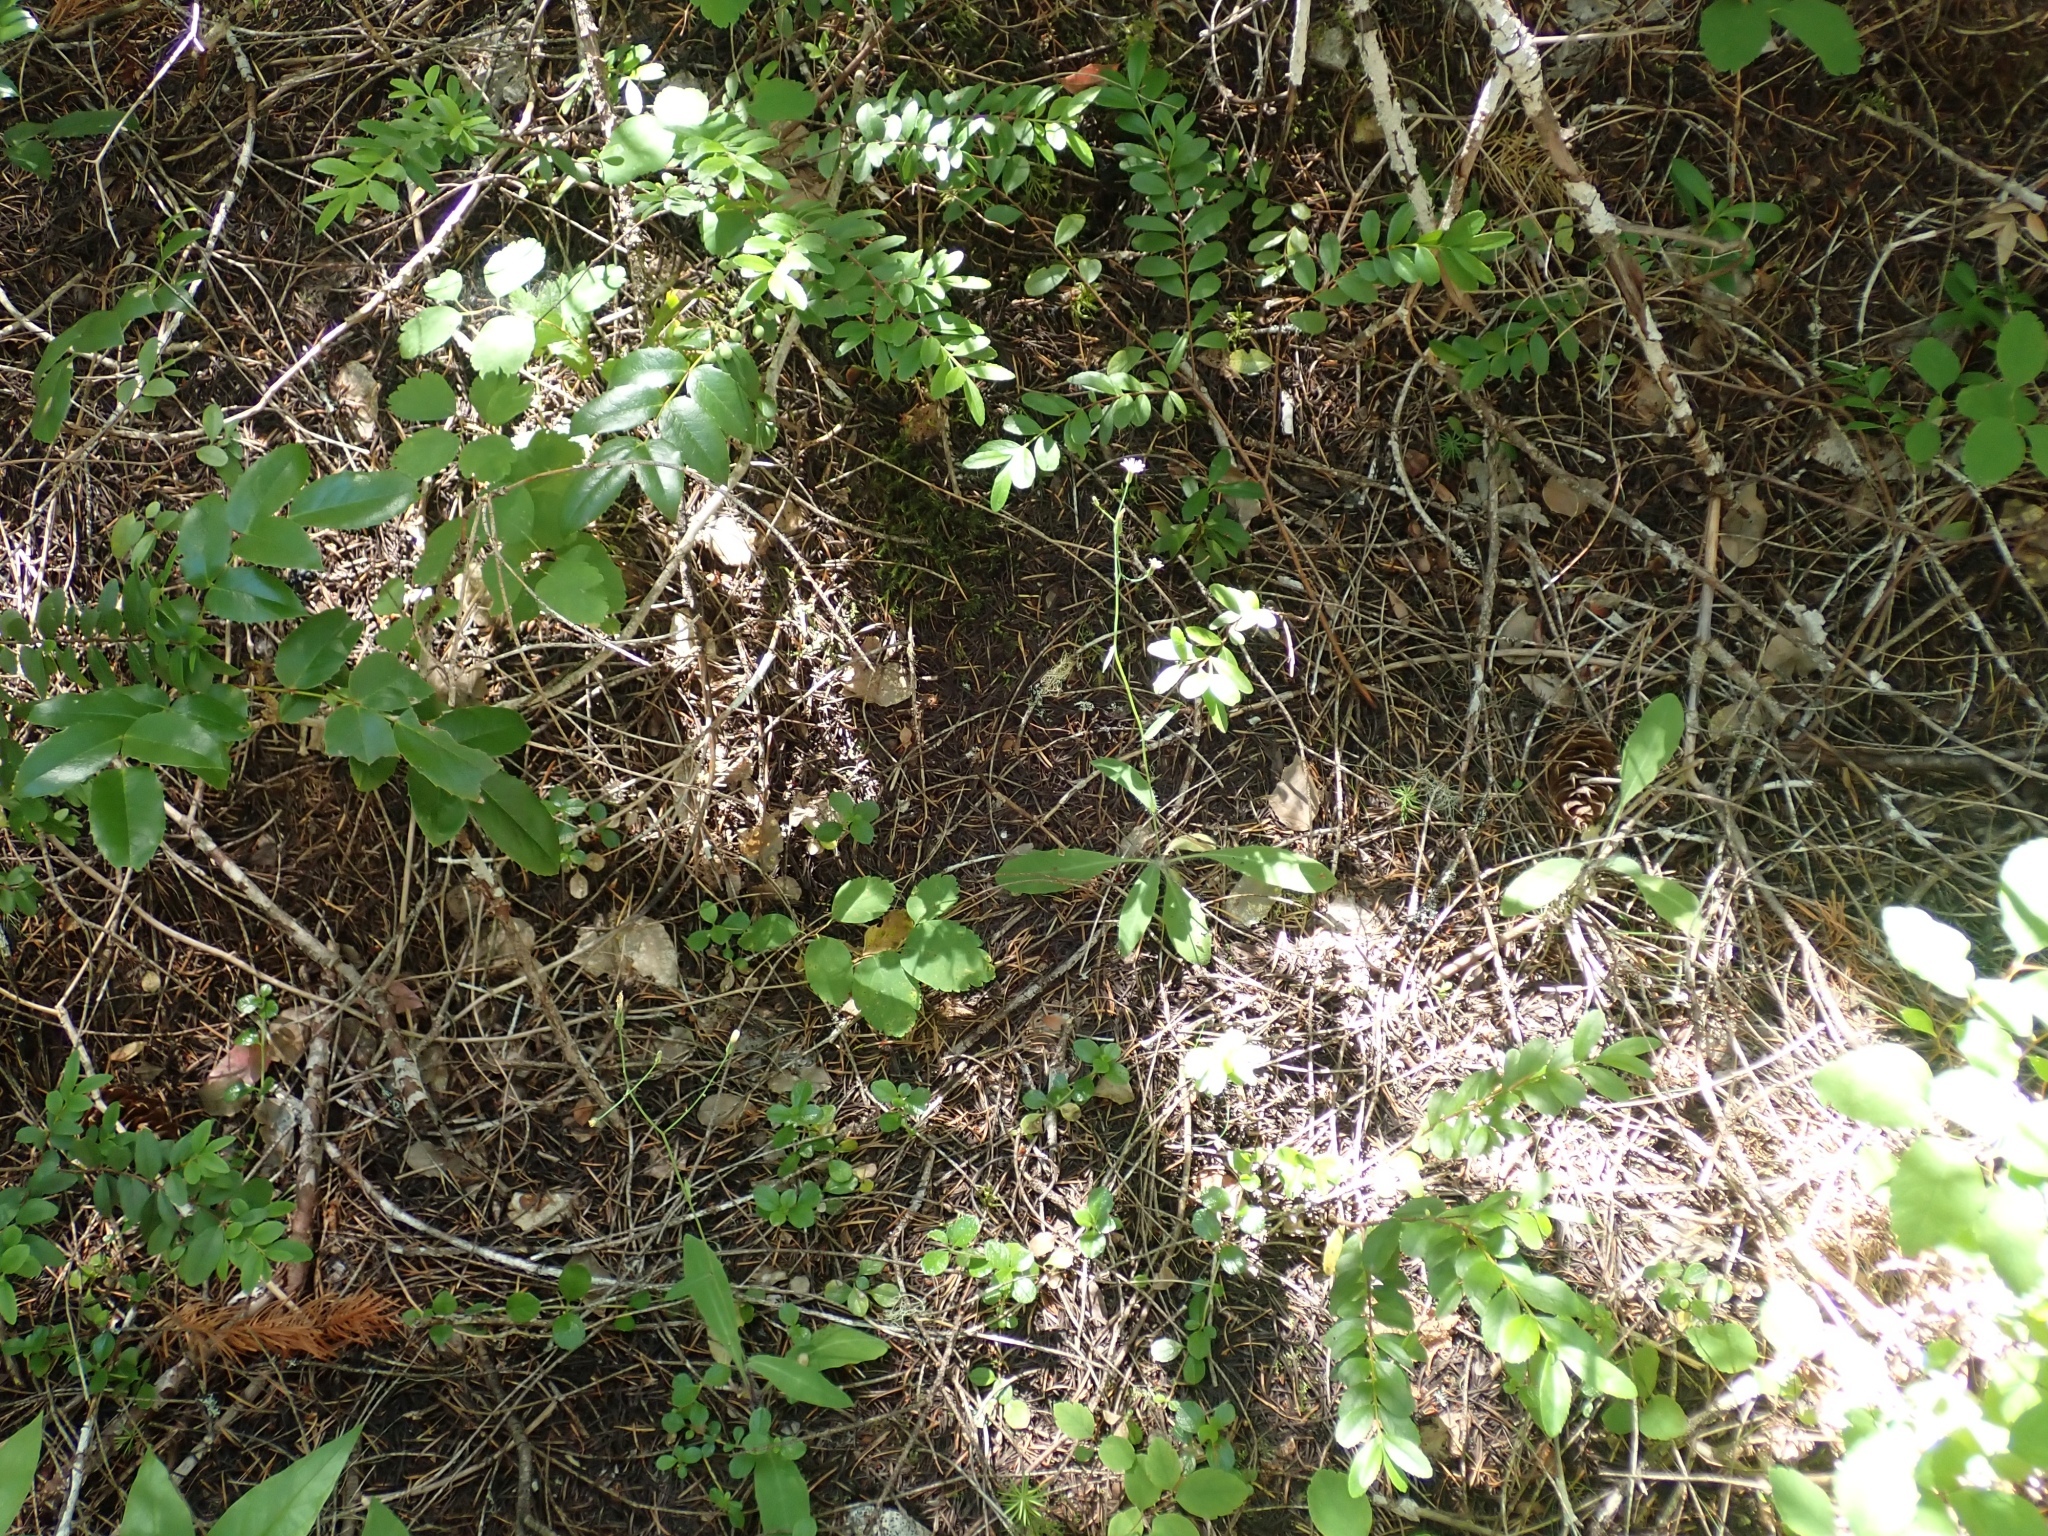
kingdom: Plantae
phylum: Tracheophyta
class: Magnoliopsida
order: Asterales
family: Asteraceae
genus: Hieracium
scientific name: Hieracium albiflorum
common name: White hawkweed
